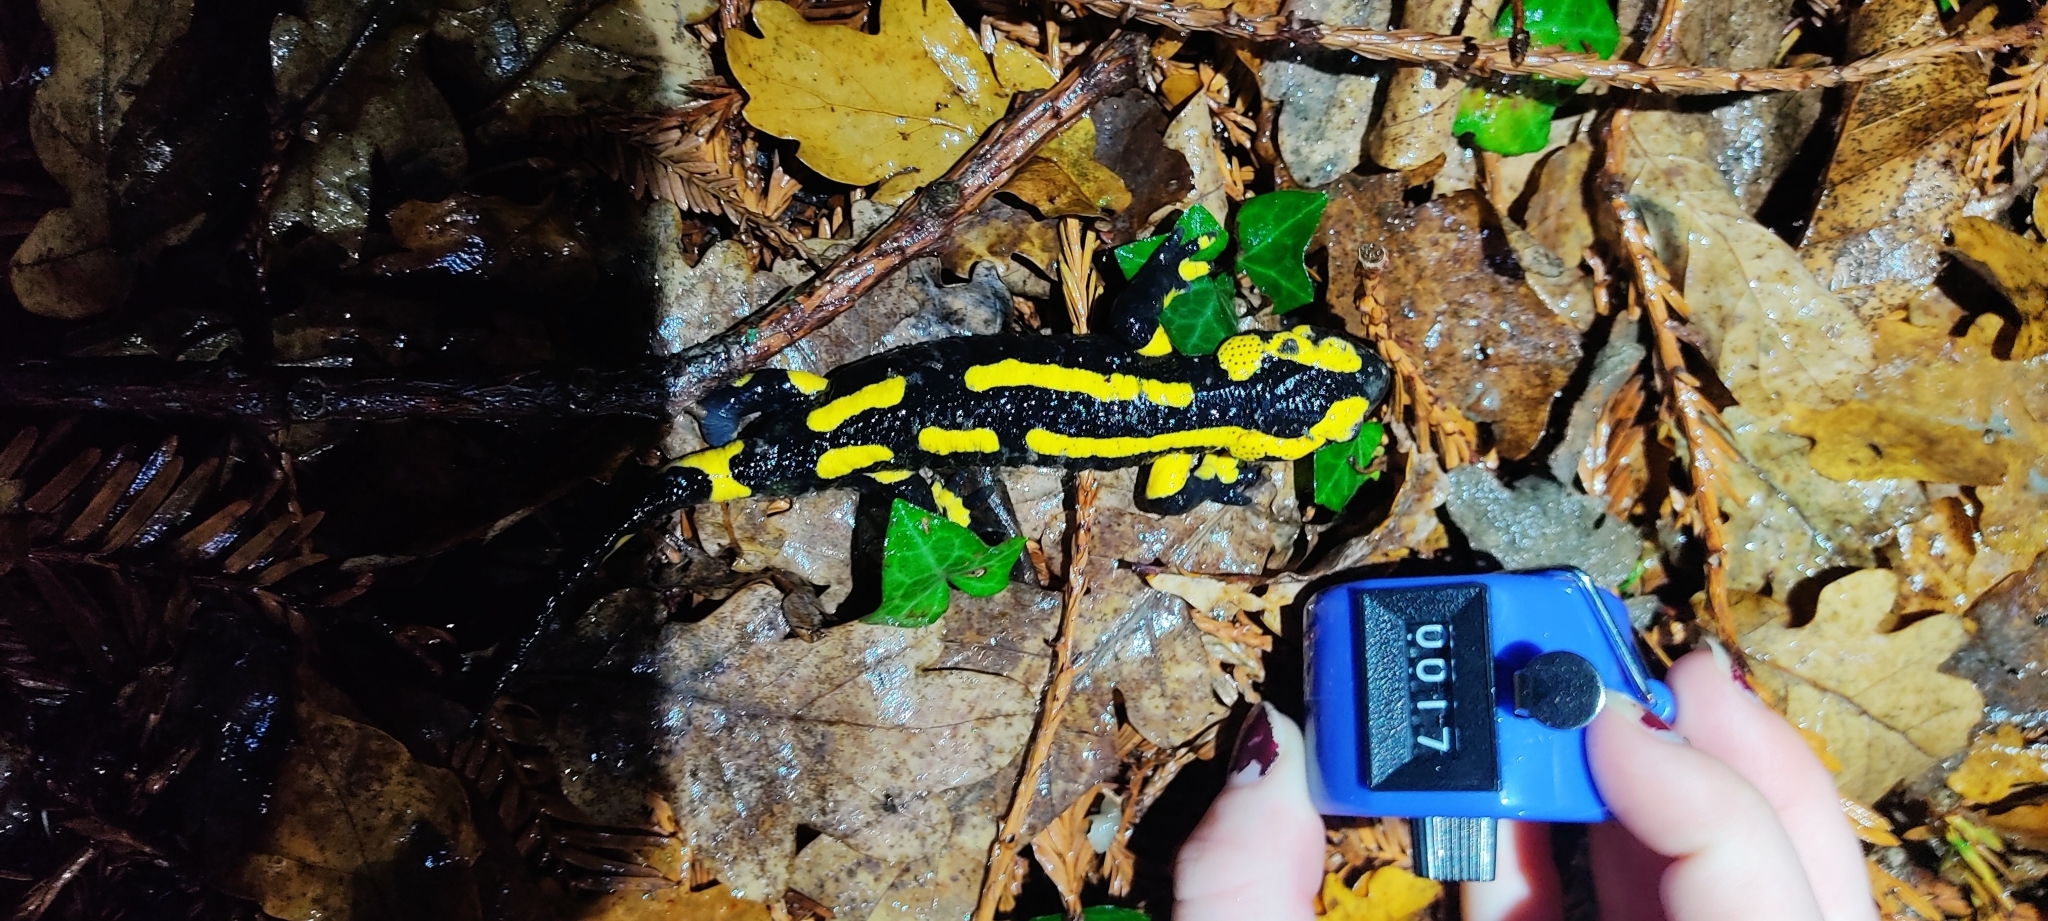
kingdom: Animalia
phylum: Chordata
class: Amphibia
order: Caudata
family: Salamandridae
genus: Salamandra
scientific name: Salamandra salamandra
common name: Fire salamander
